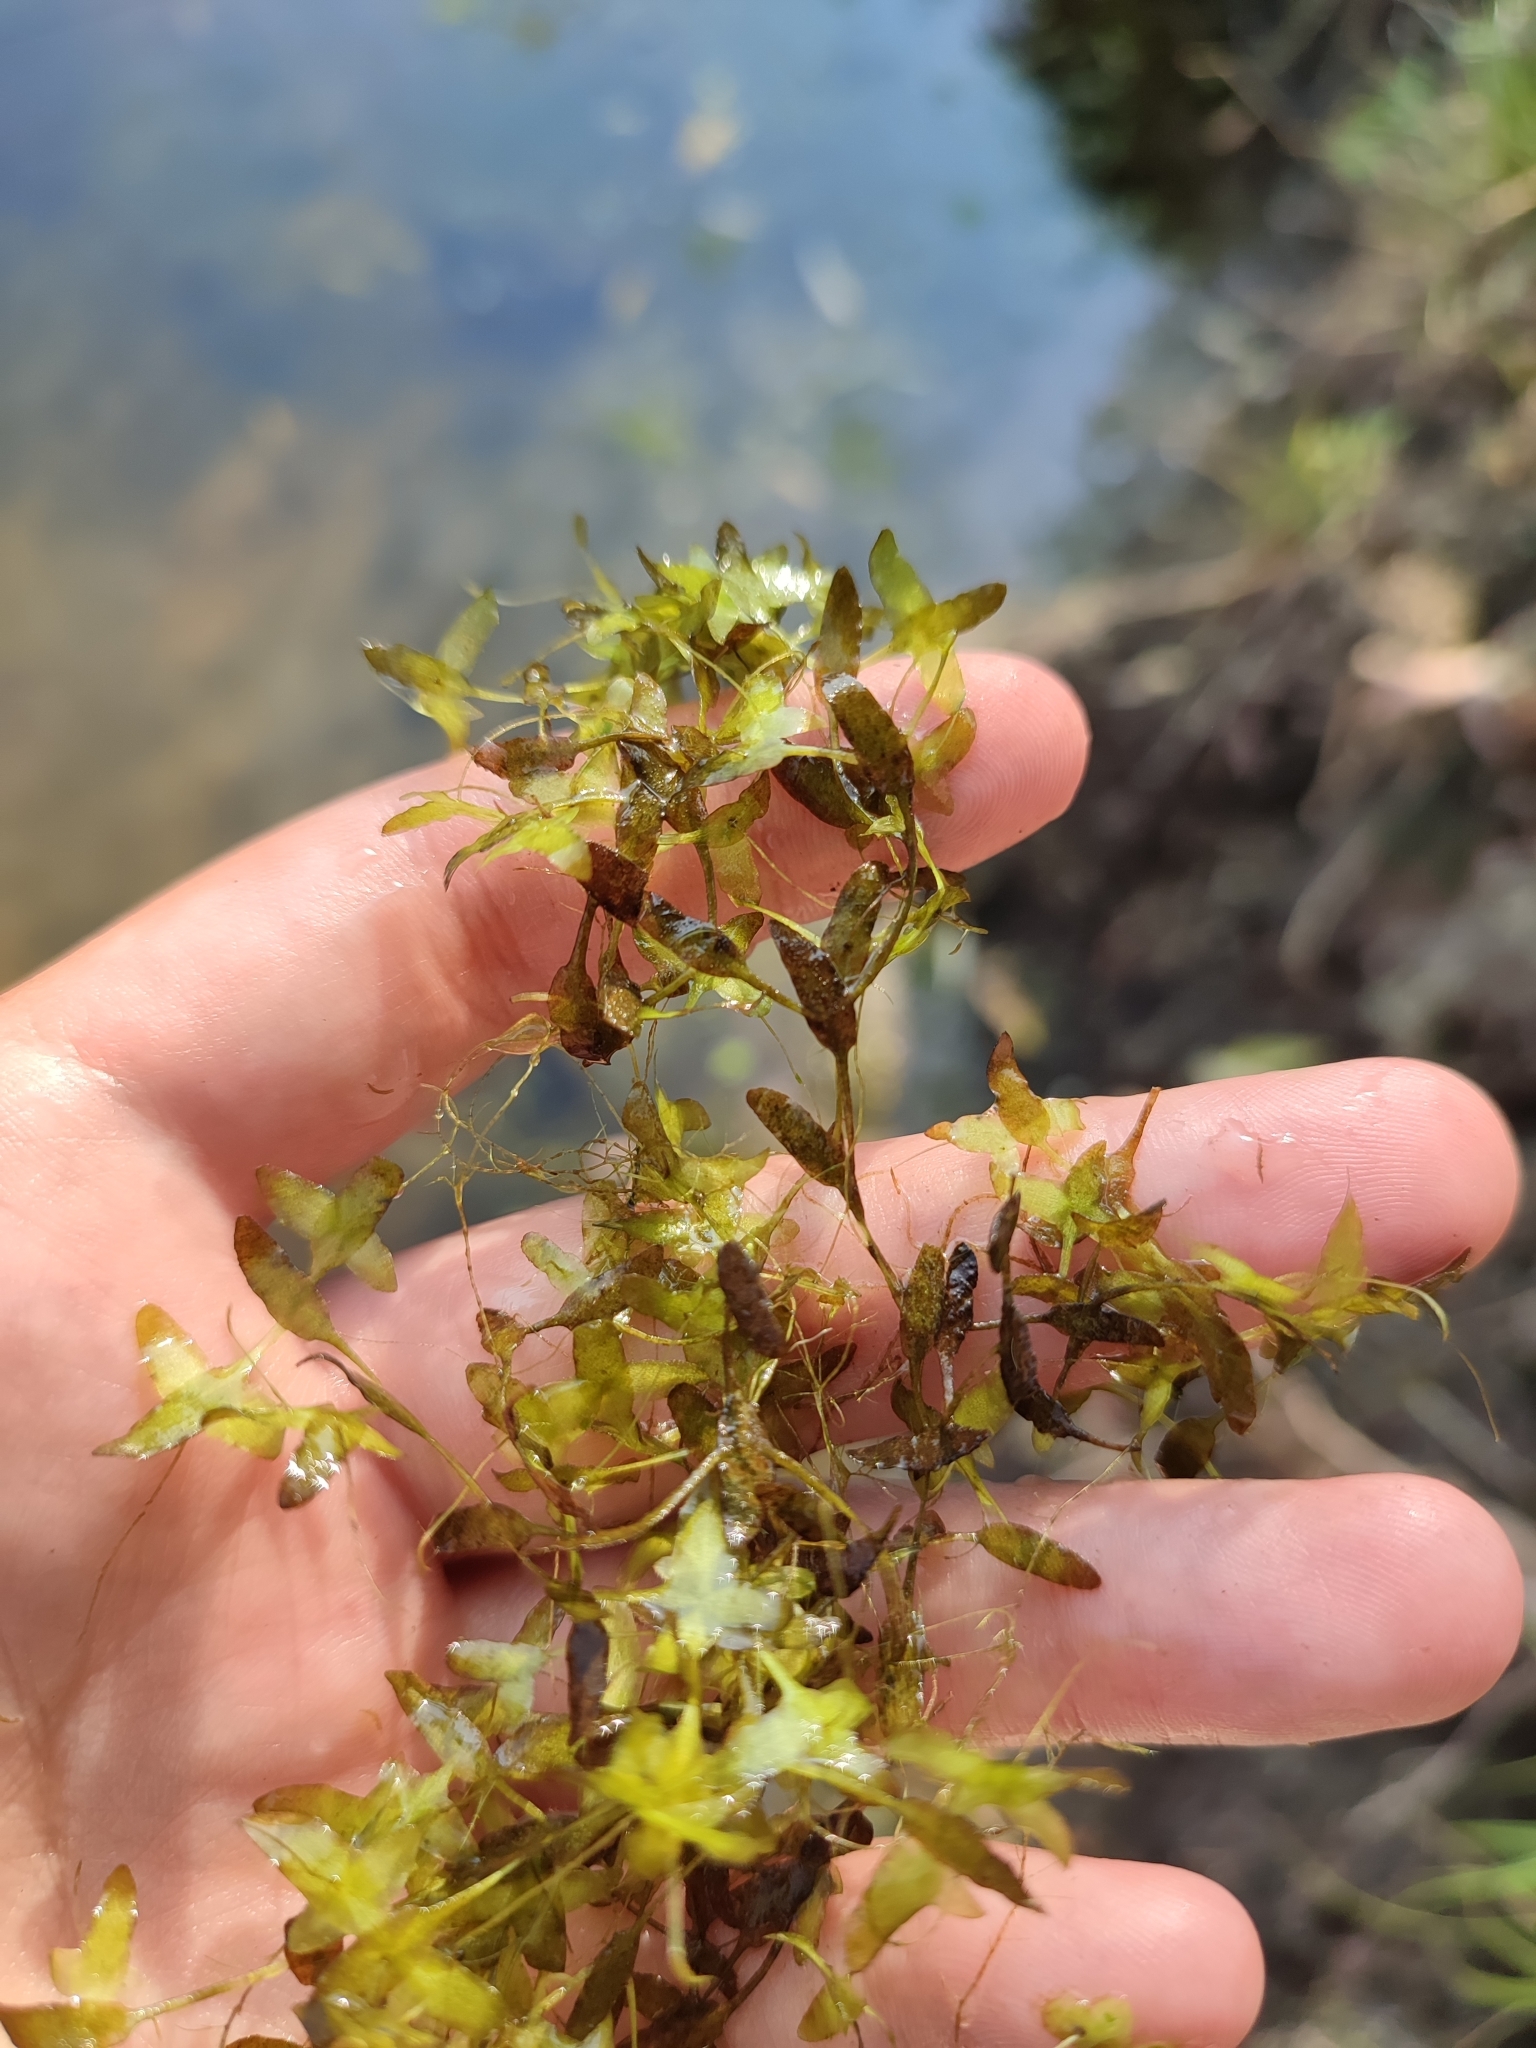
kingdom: Plantae
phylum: Tracheophyta
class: Liliopsida
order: Alismatales
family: Araceae
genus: Lemna
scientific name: Lemna trisulca
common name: Ivy-leaved duckweed
